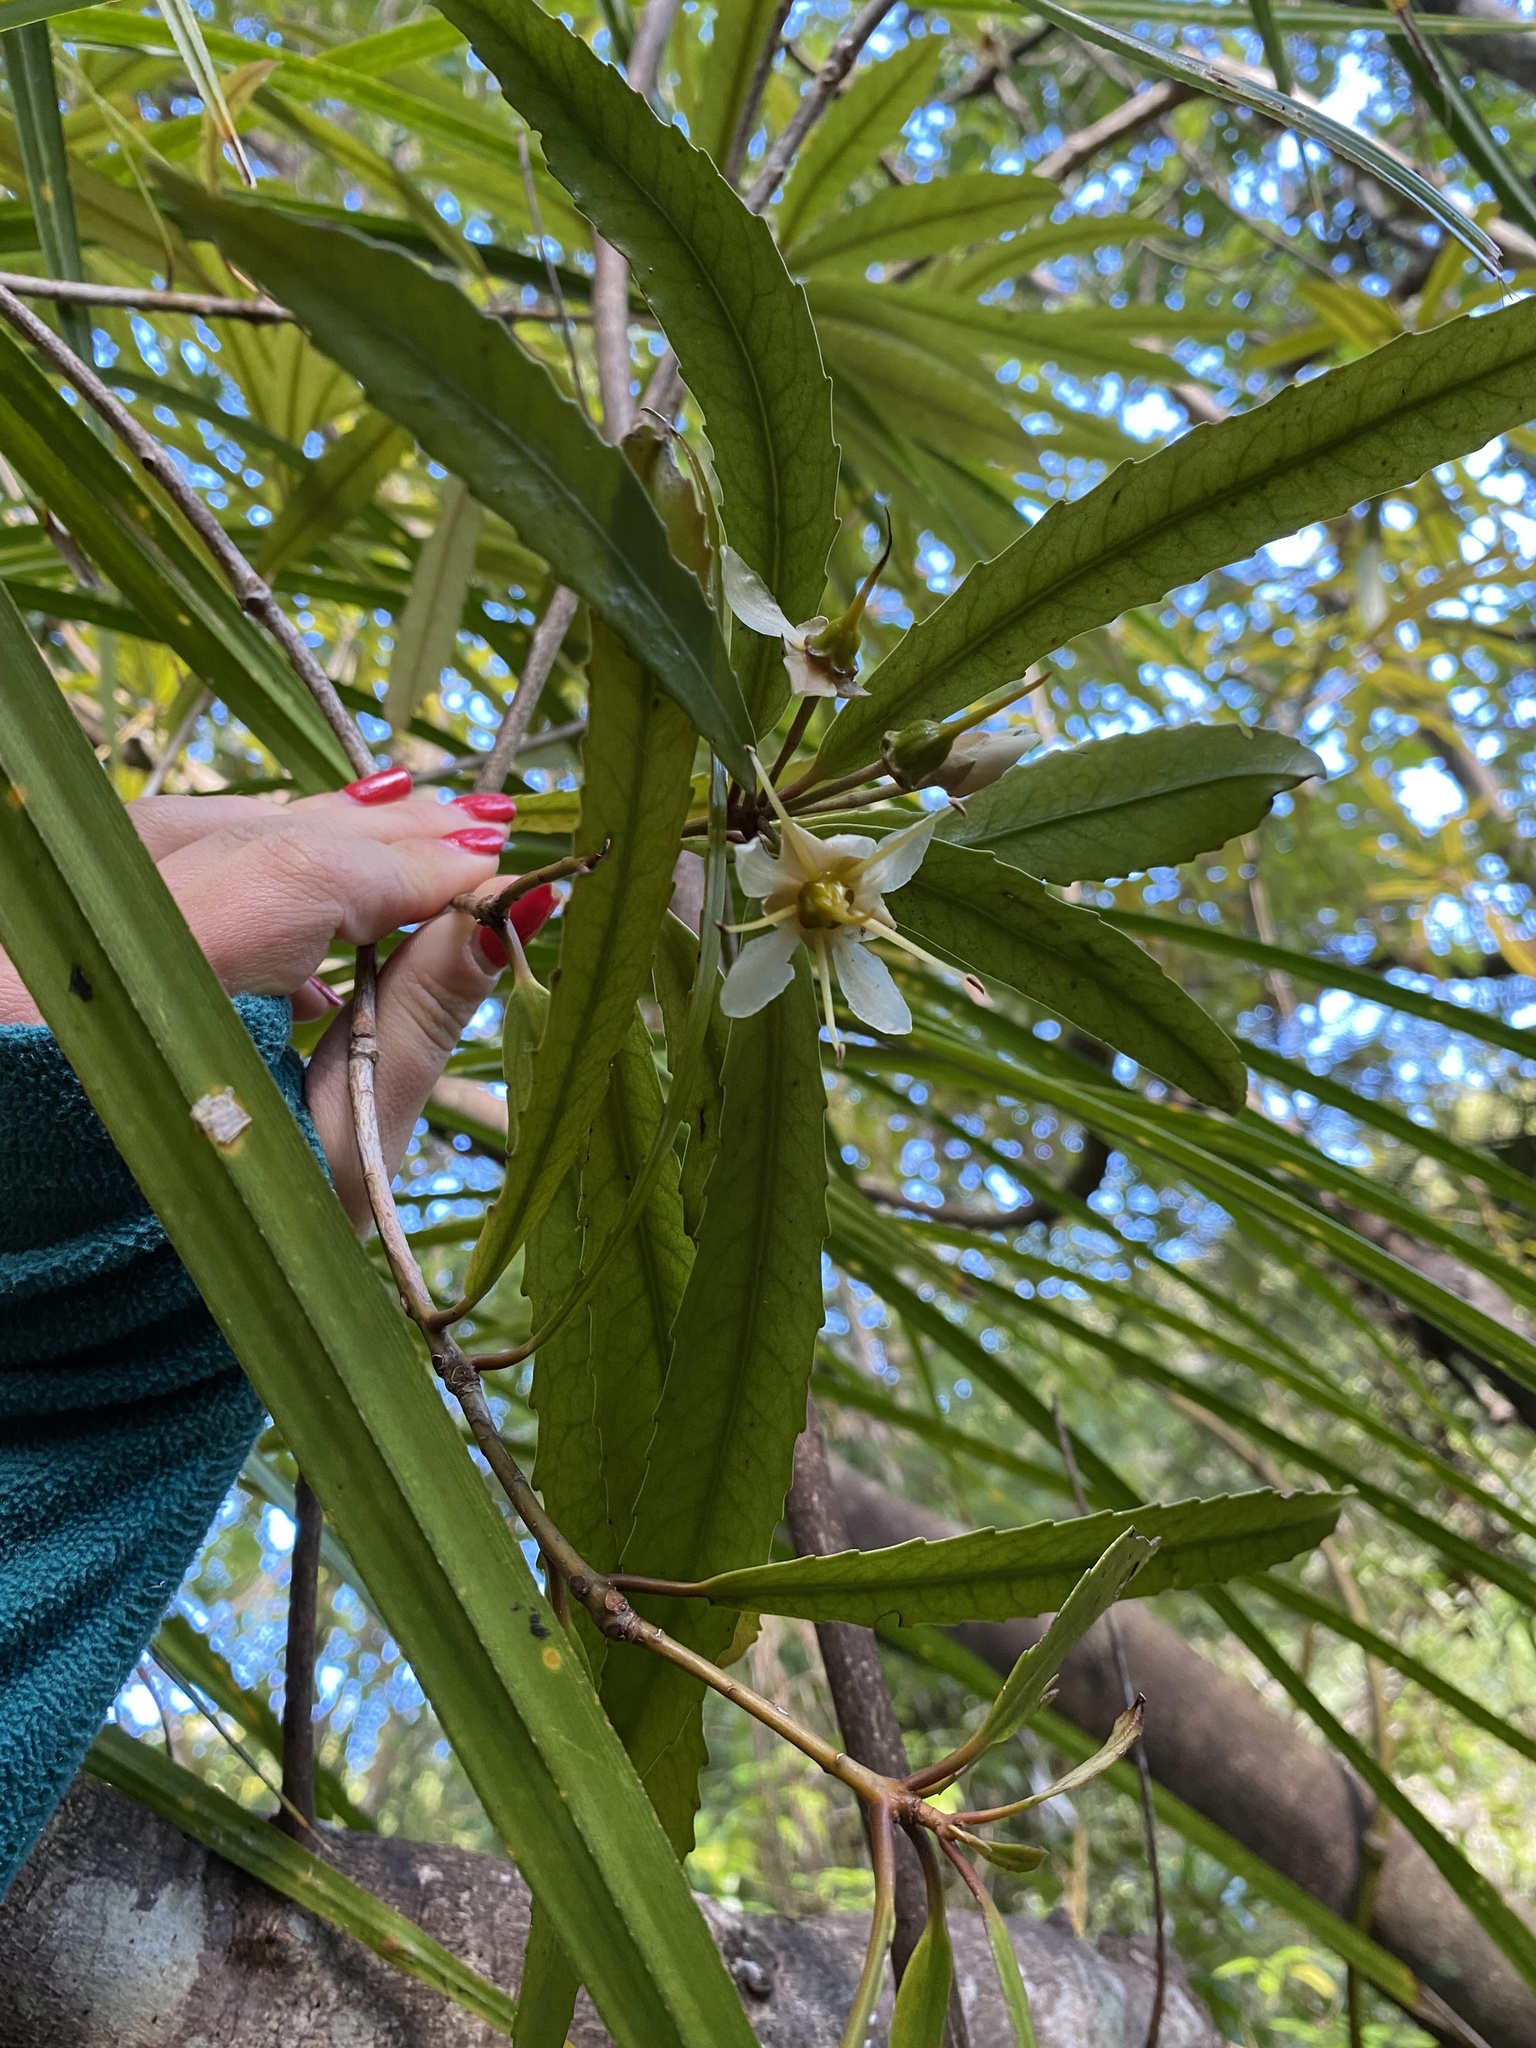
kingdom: Plantae
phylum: Tracheophyta
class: Magnoliopsida
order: Crossosomatales
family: Ixerbaceae
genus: Ixerba
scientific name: Ixerba brexioides
